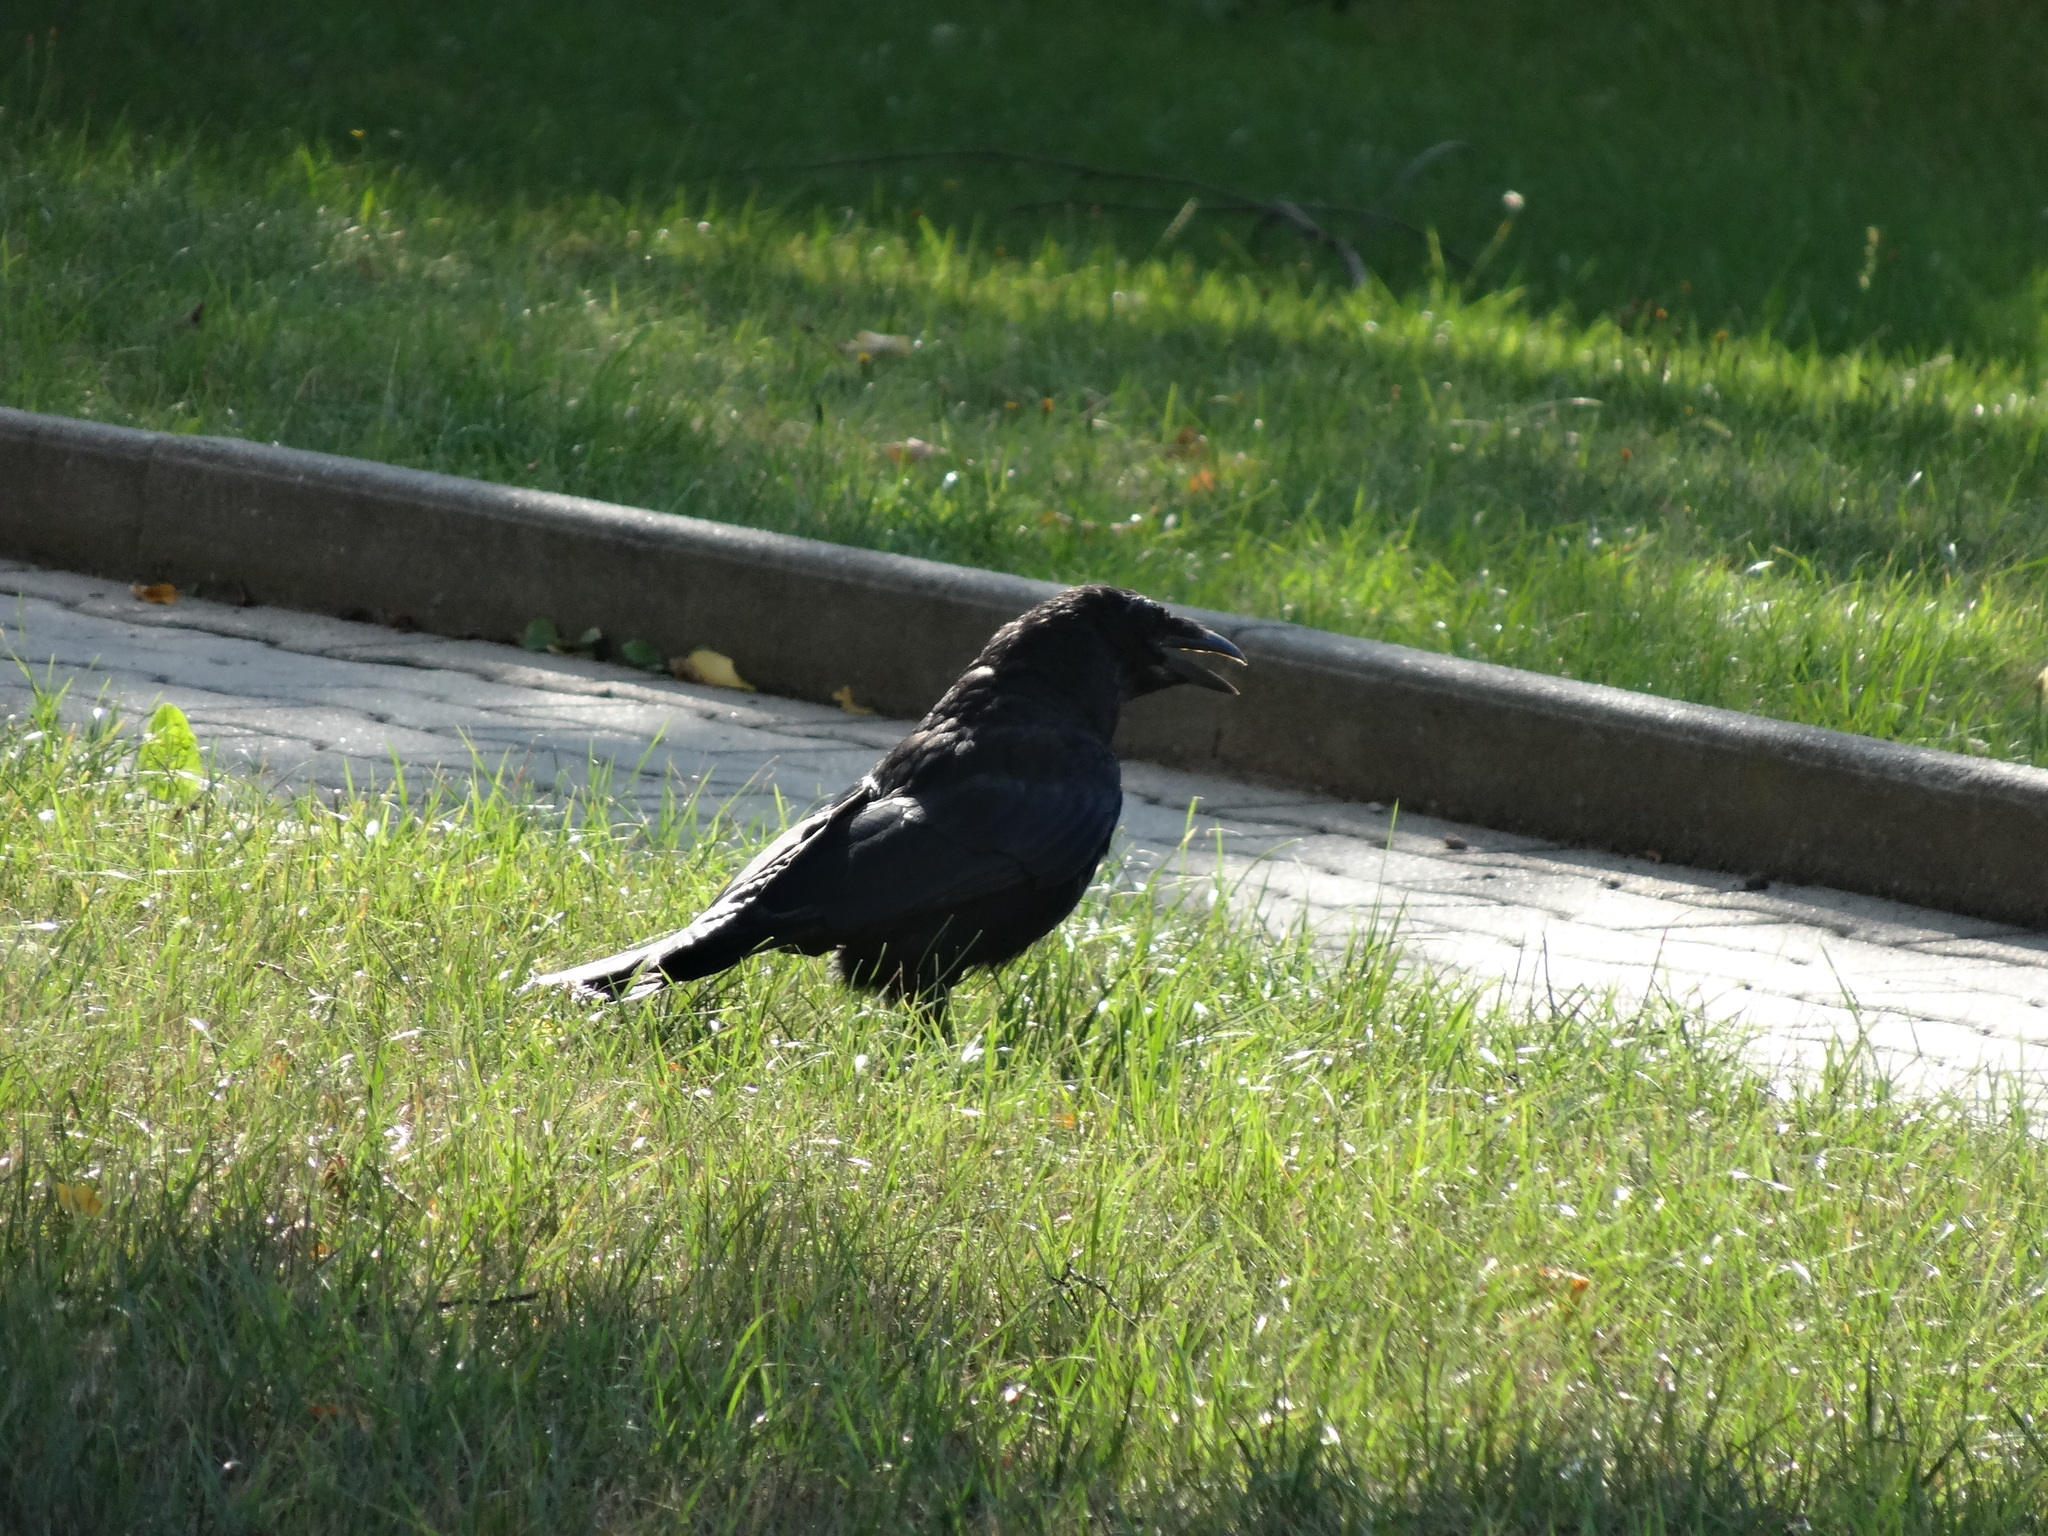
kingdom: Animalia
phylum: Chordata
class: Aves
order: Passeriformes
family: Corvidae
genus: Corvus
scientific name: Corvus corone
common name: Carrion crow
